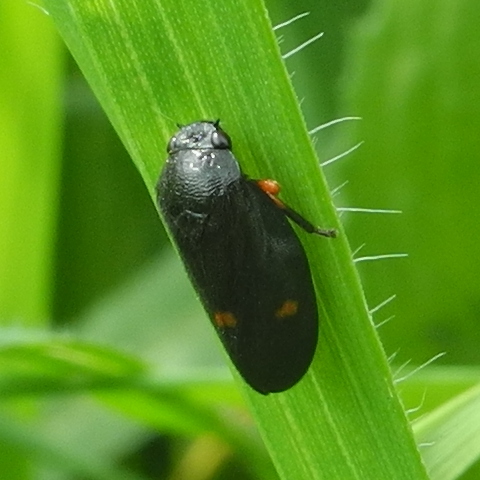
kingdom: Animalia
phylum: Arthropoda
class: Insecta
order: Hemiptera
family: Cercopidae
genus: Cercopis
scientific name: Cercopis
